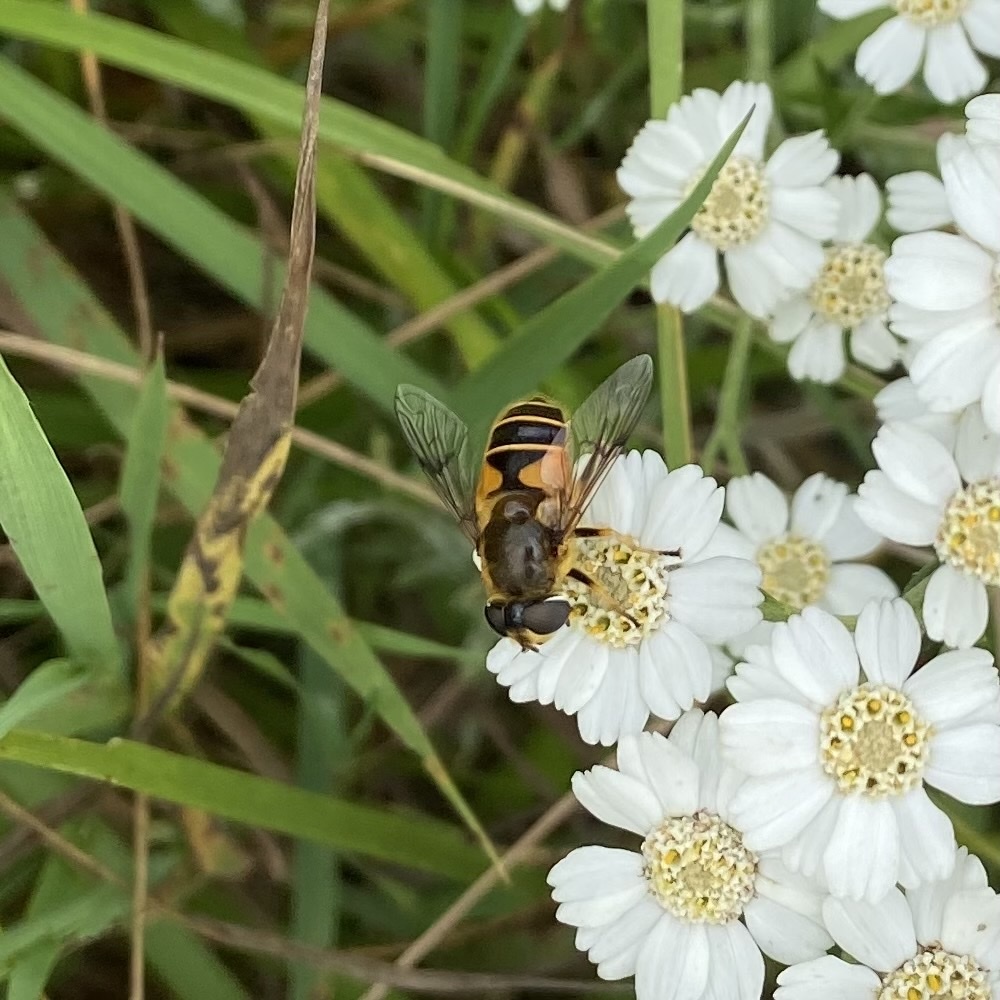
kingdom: Animalia
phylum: Arthropoda
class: Insecta
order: Diptera
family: Syrphidae
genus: Cheilosia
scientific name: Cheilosia morio
